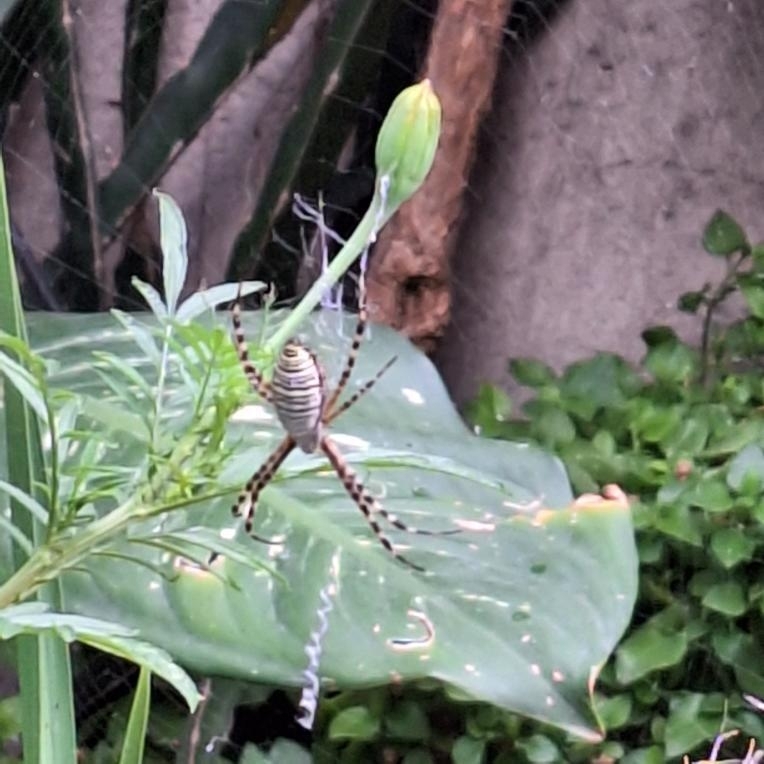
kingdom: Animalia
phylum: Arthropoda
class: Arachnida
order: Araneae
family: Araneidae
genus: Argiope
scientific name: Argiope trifasciata
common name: Banded garden spider
